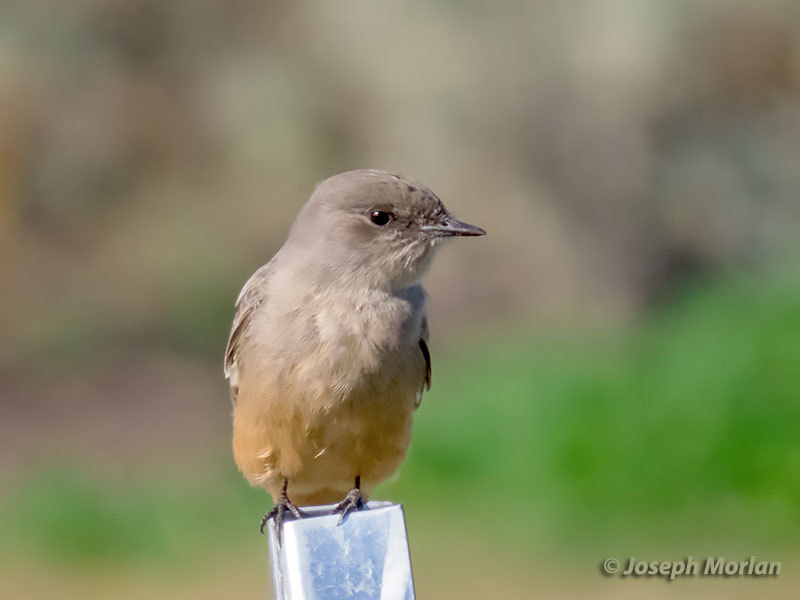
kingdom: Animalia
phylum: Chordata
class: Aves
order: Passeriformes
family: Tyrannidae
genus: Sayornis
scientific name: Sayornis saya
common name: Say's phoebe
